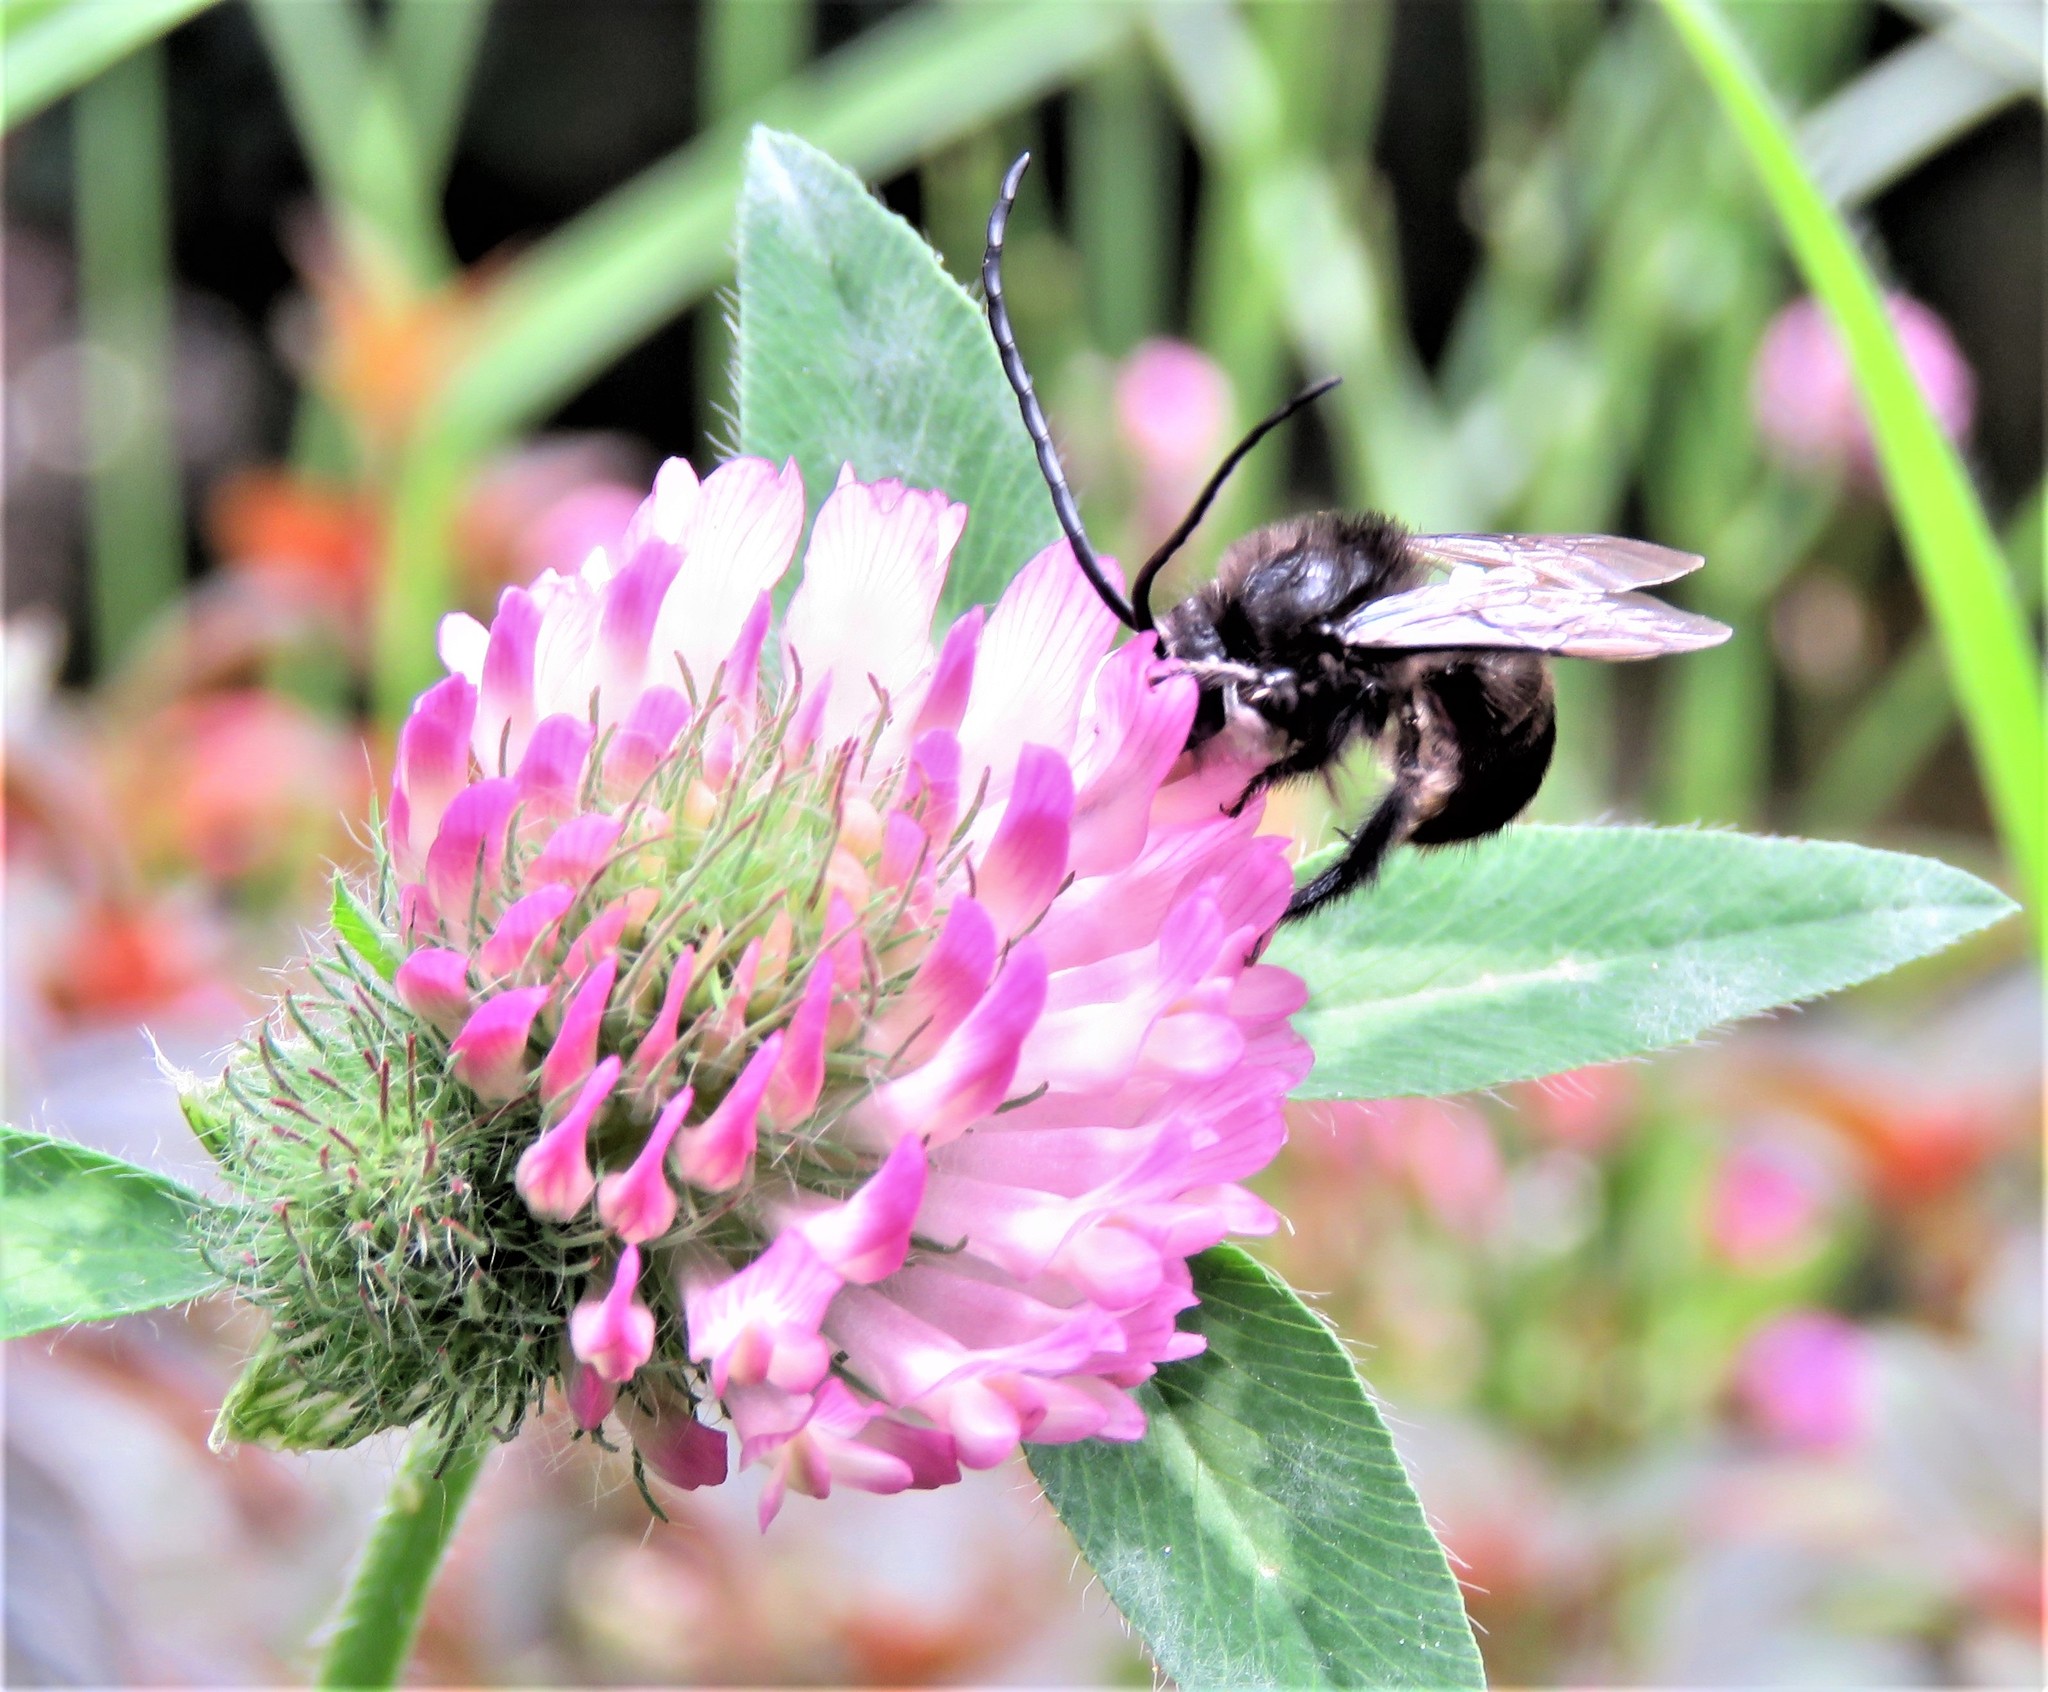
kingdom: Plantae
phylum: Tracheophyta
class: Magnoliopsida
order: Fabales
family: Fabaceae
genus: Trifolium
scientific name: Trifolium pratense
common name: Red clover
